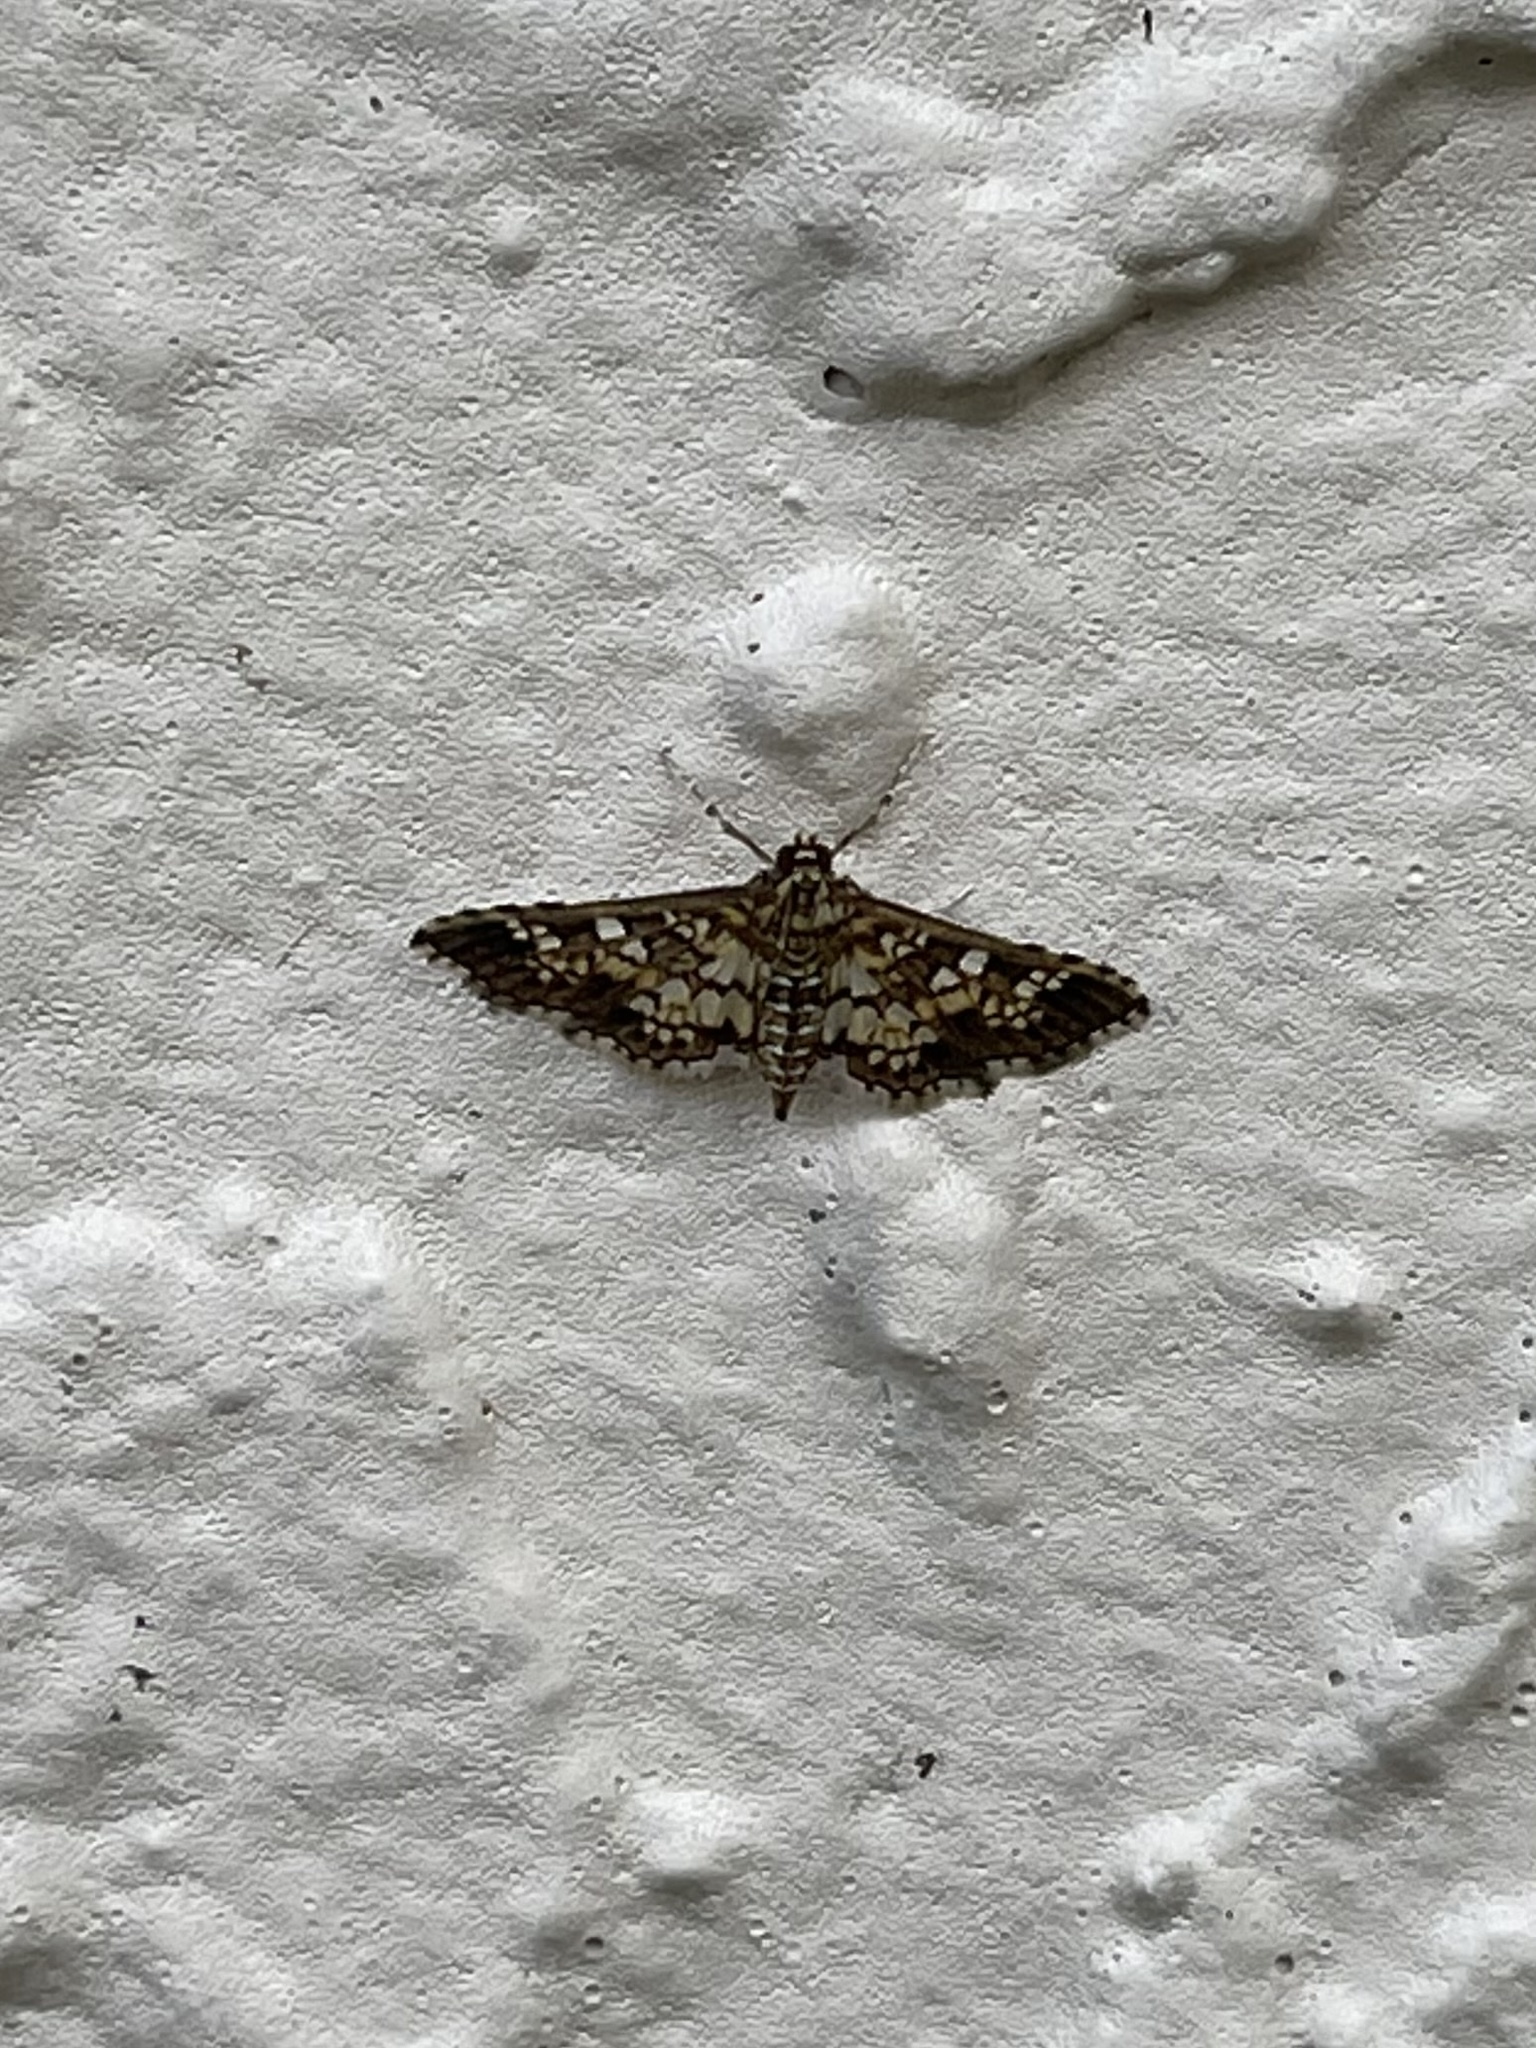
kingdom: Animalia
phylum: Arthropoda
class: Insecta
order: Lepidoptera
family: Crambidae
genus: Samea
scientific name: Samea ecclesialis
